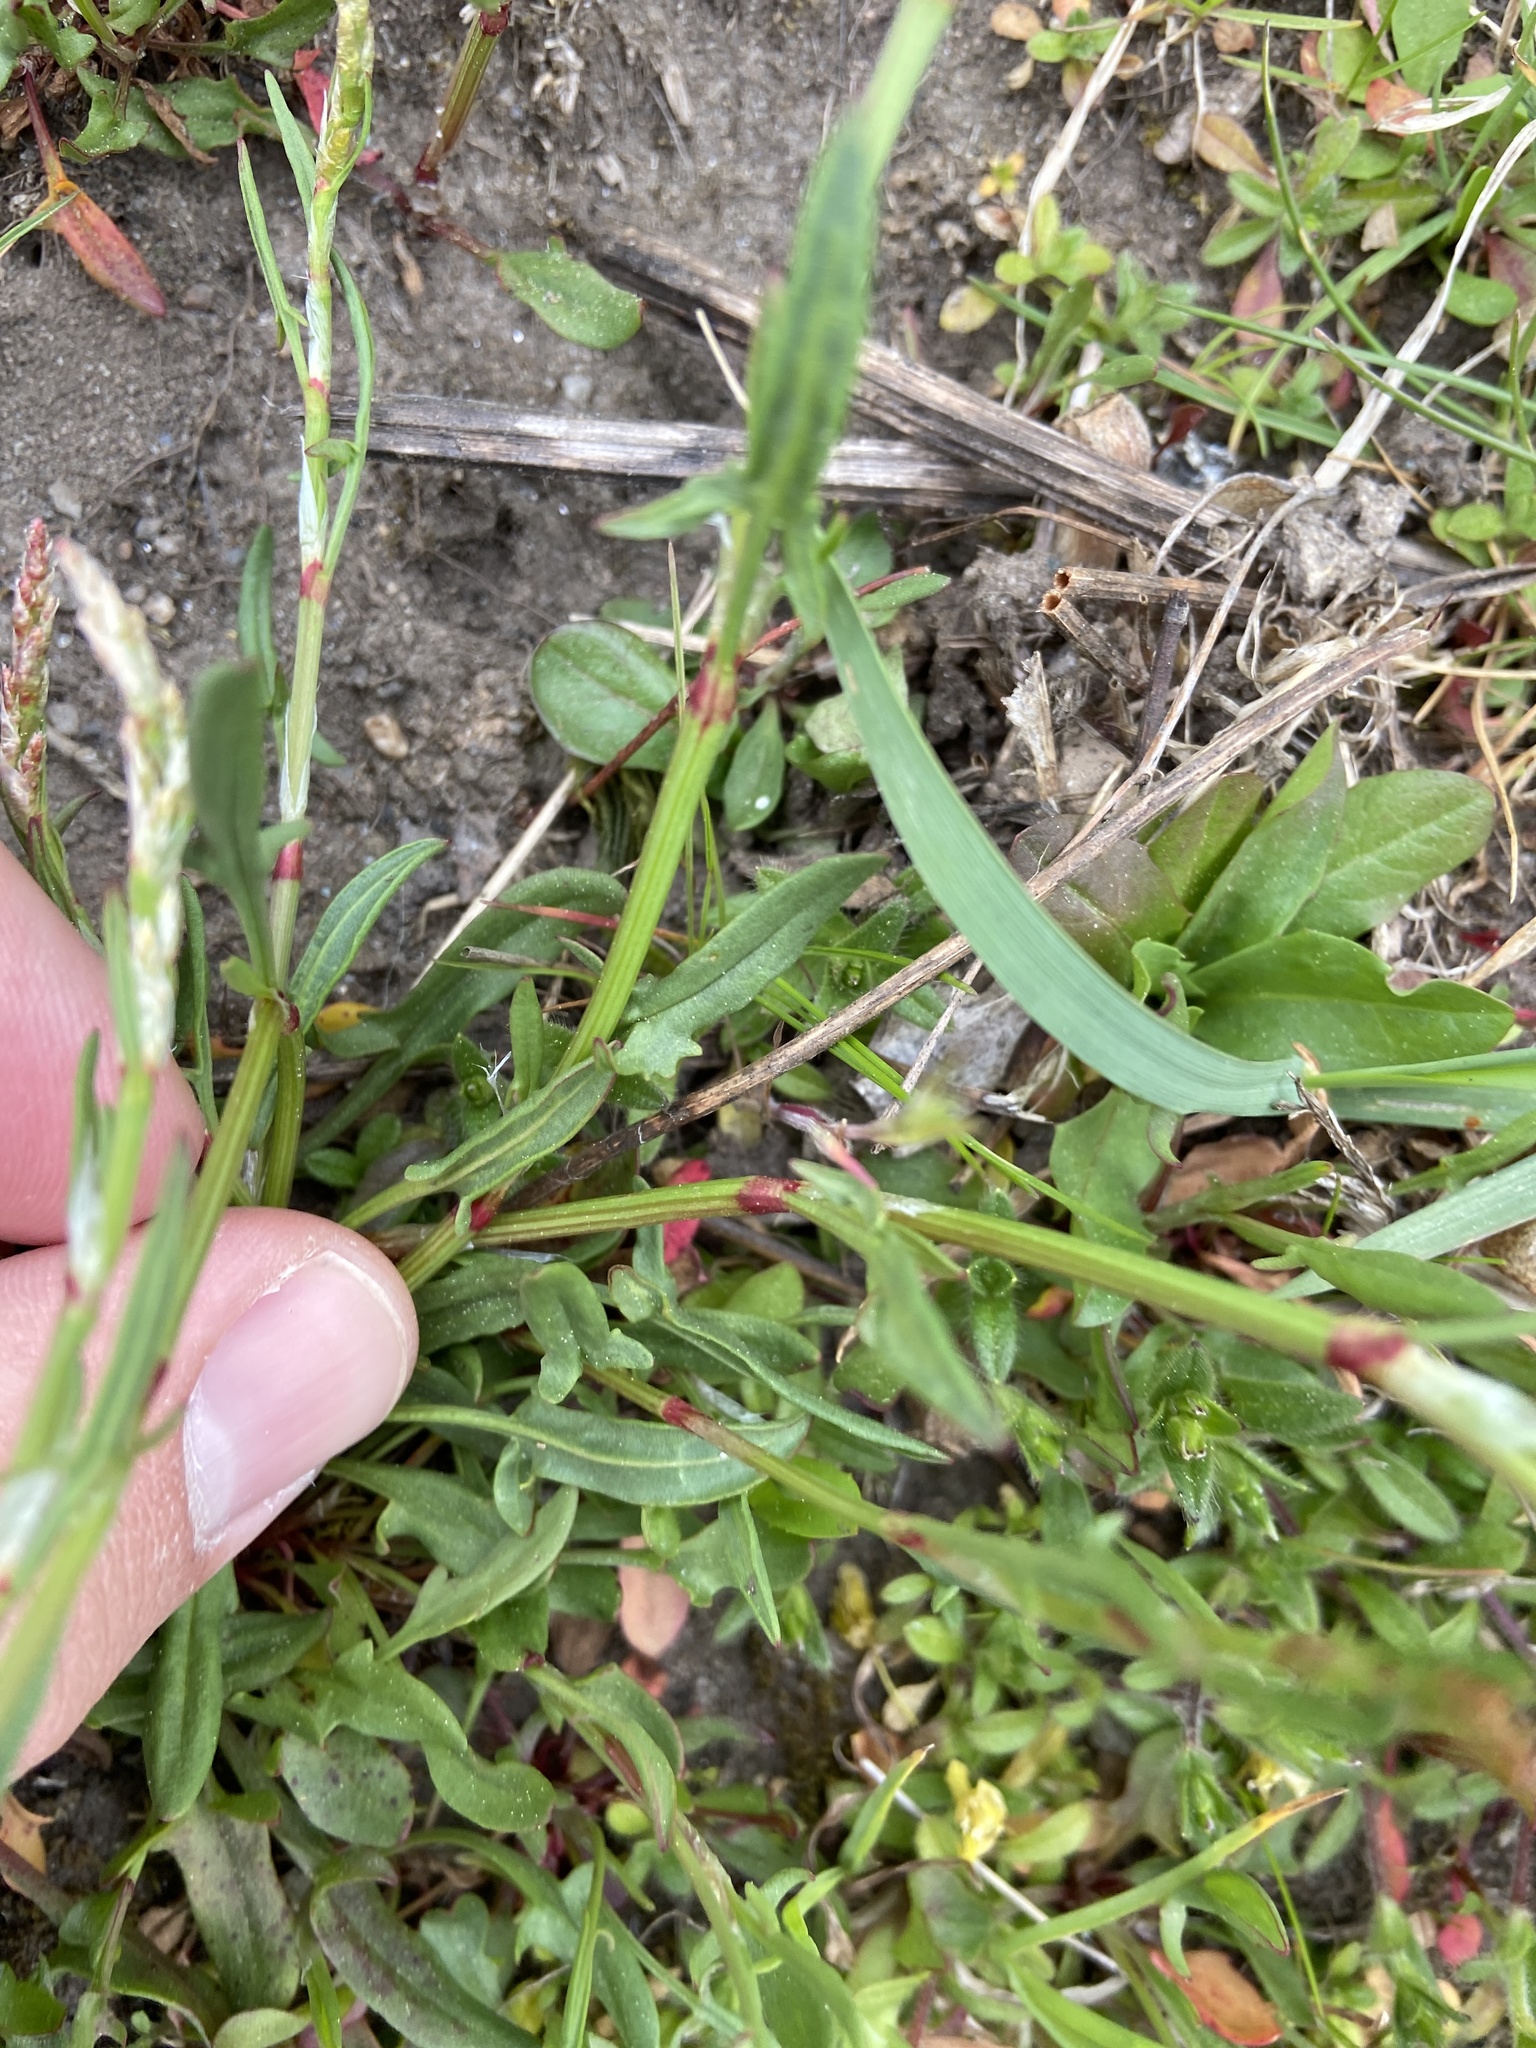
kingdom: Plantae
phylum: Tracheophyta
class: Magnoliopsida
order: Caryophyllales
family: Polygonaceae
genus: Rumex
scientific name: Rumex acetosella
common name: Common sheep sorrel
